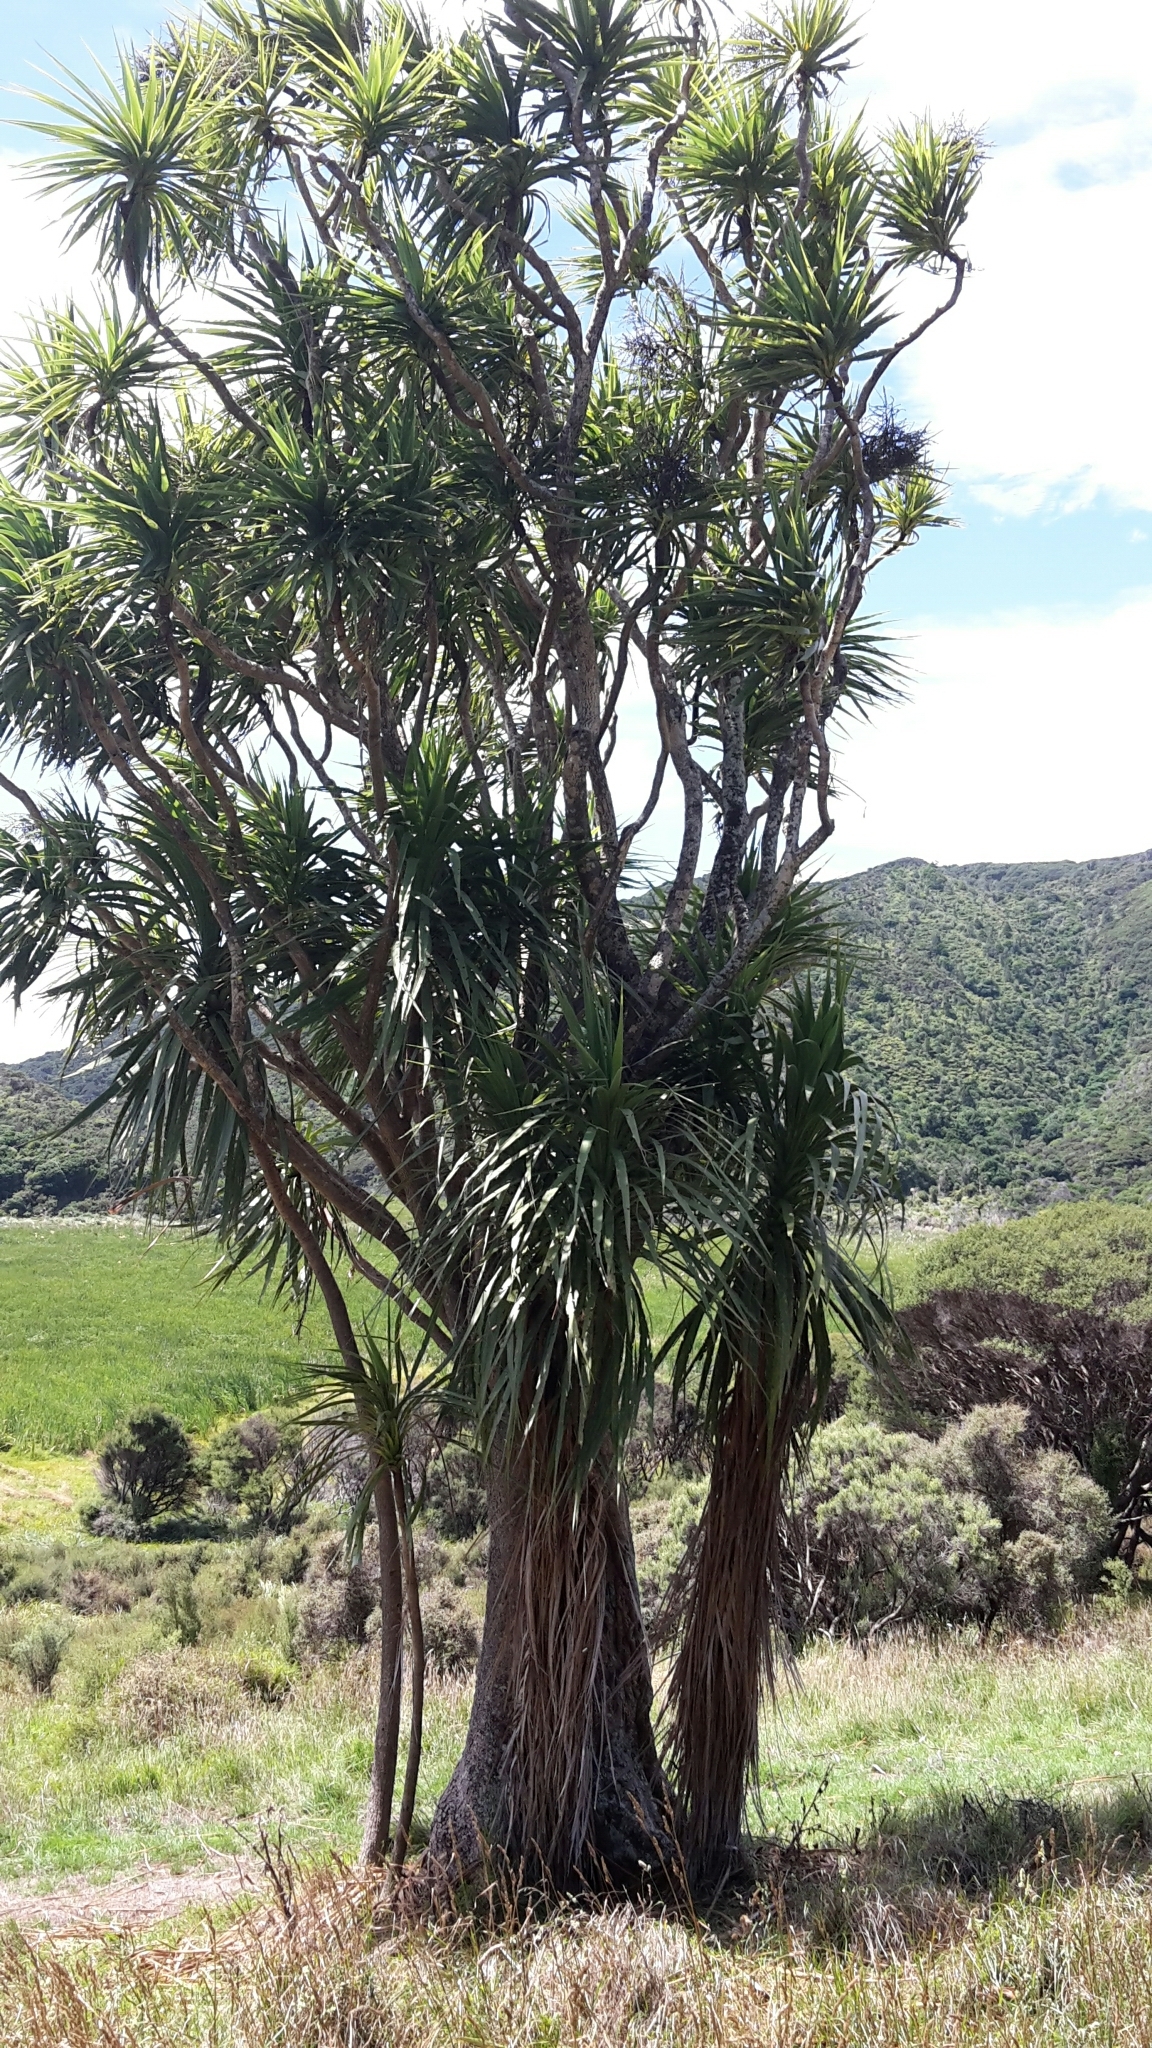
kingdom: Plantae
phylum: Tracheophyta
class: Liliopsida
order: Asparagales
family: Asparagaceae
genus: Cordyline
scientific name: Cordyline australis
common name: Cabbage-palm
